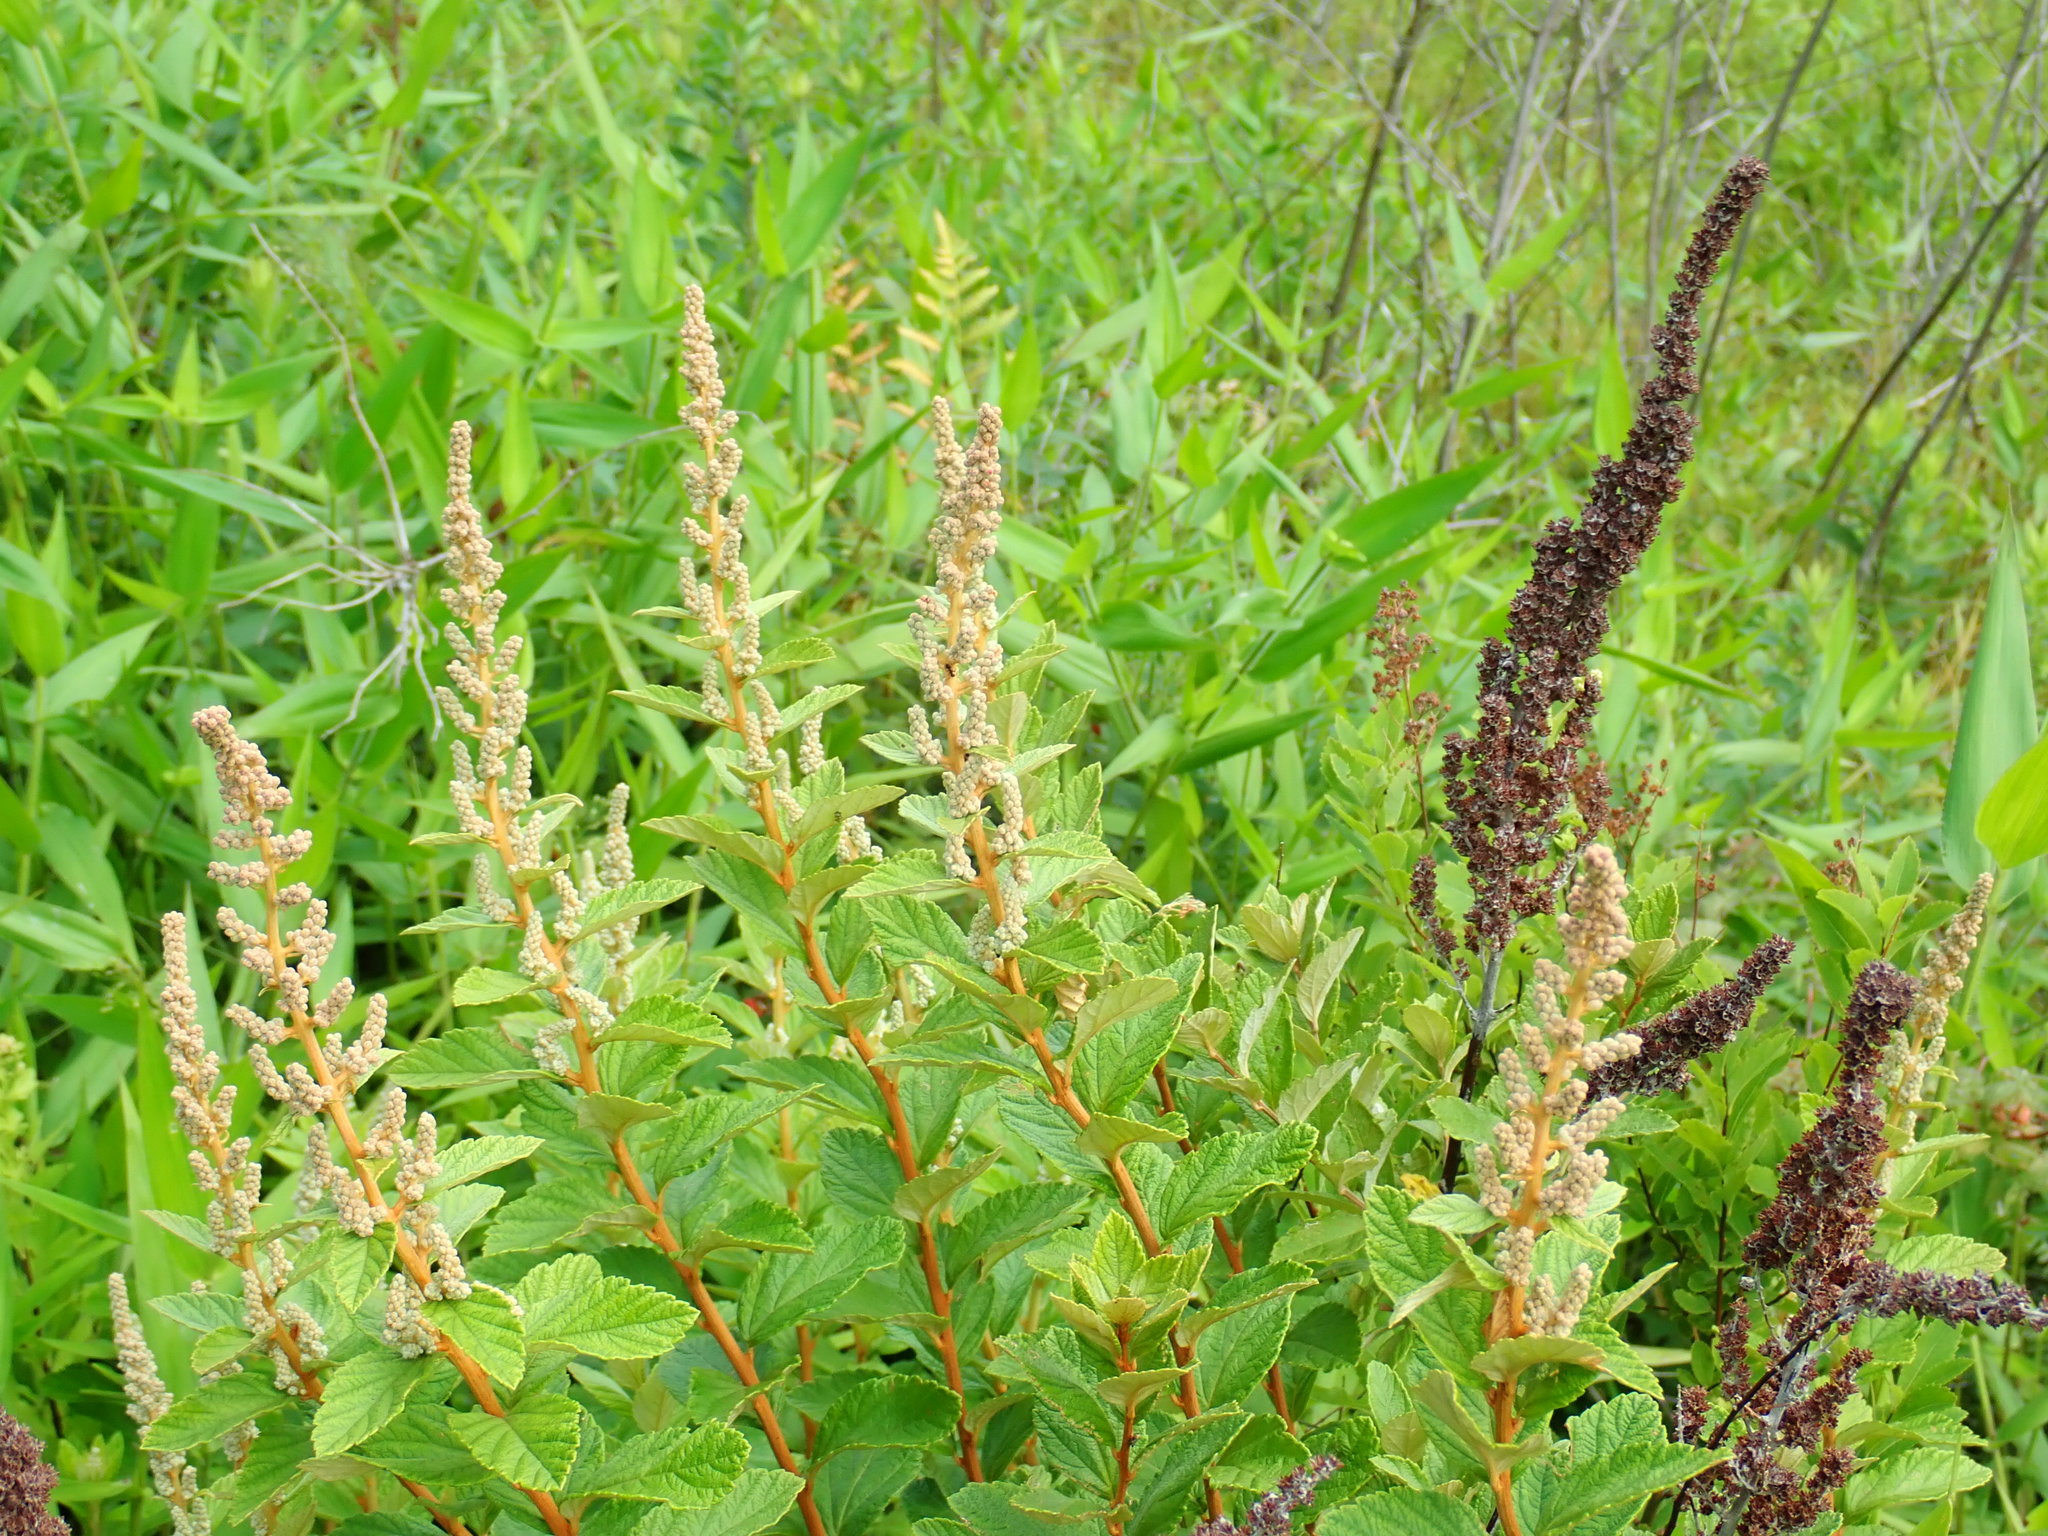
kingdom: Plantae
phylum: Tracheophyta
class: Magnoliopsida
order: Rosales
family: Rosaceae
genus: Spiraea
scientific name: Spiraea tomentosa
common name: Hardhack
